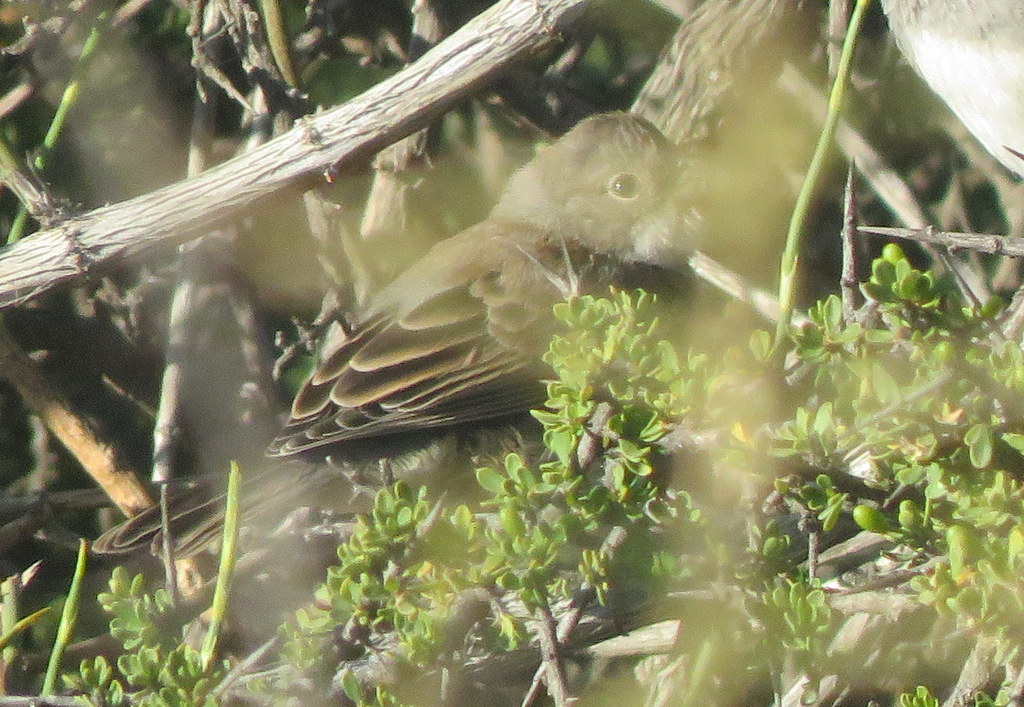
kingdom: Animalia
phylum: Chordata
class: Aves
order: Passeriformes
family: Thraupidae
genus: Diuca
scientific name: Diuca diuca
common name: Common diuca finch
